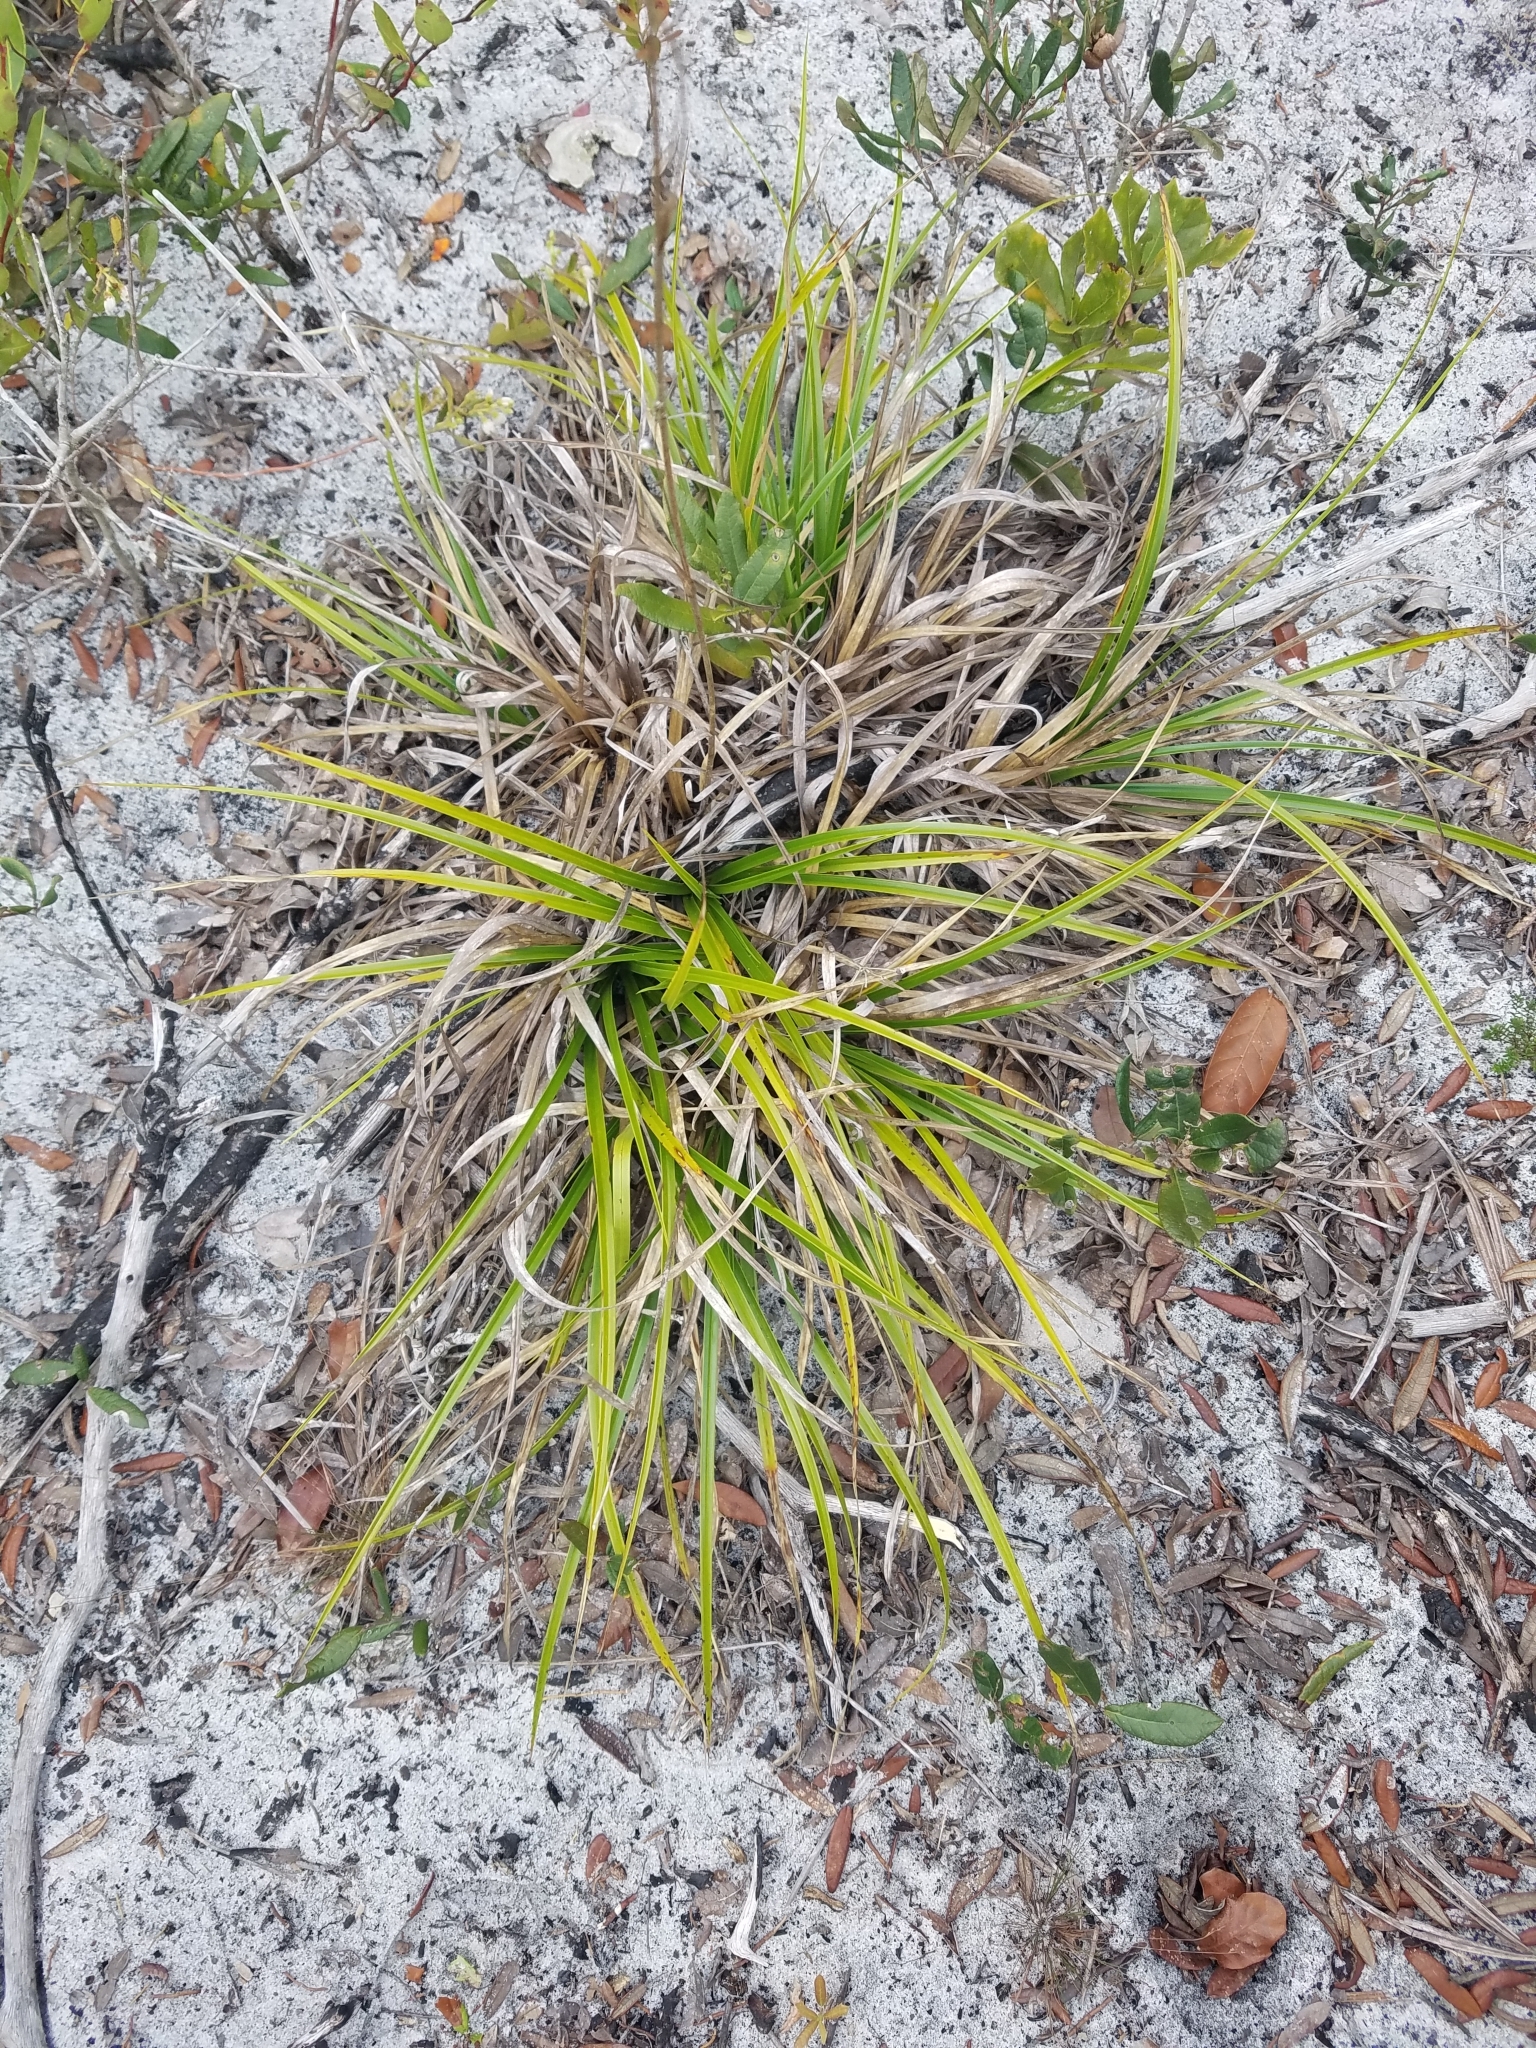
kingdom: Plantae
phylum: Tracheophyta
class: Liliopsida
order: Poales
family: Cyperaceae
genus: Rhynchospora
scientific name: Rhynchospora megalocarpa
